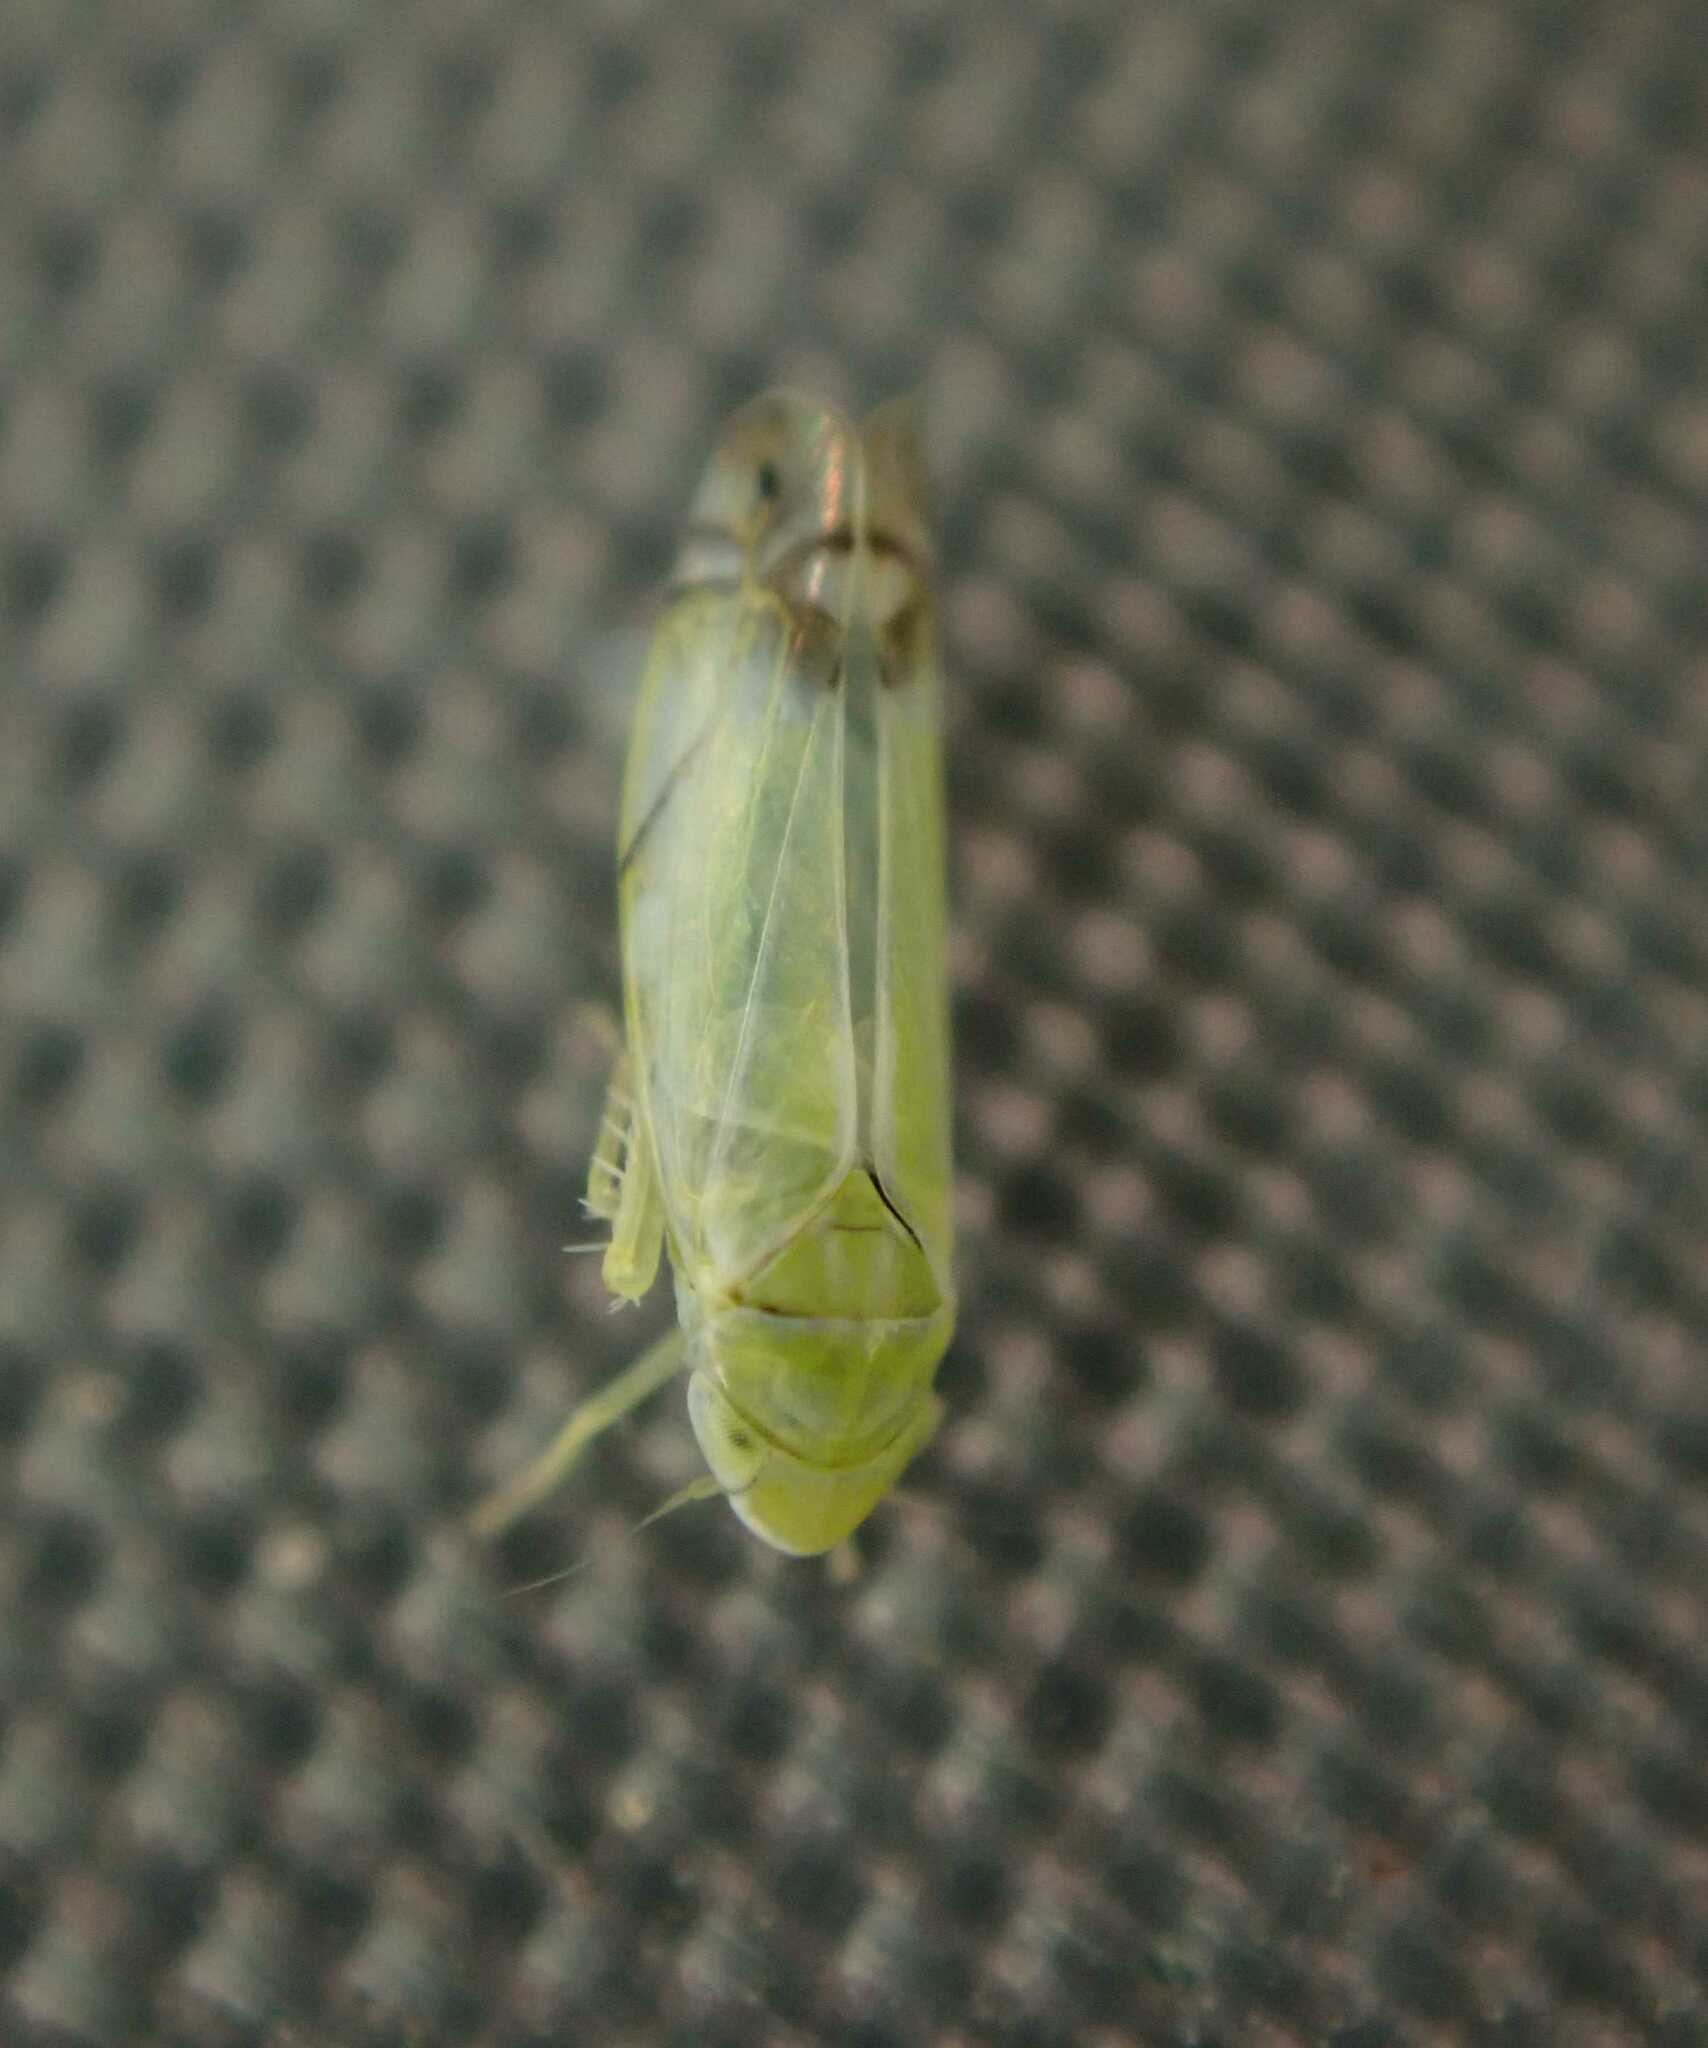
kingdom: Animalia
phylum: Arthropoda
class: Insecta
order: Hemiptera
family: Cicadellidae
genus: Zyginella
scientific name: Zyginella pulchra
